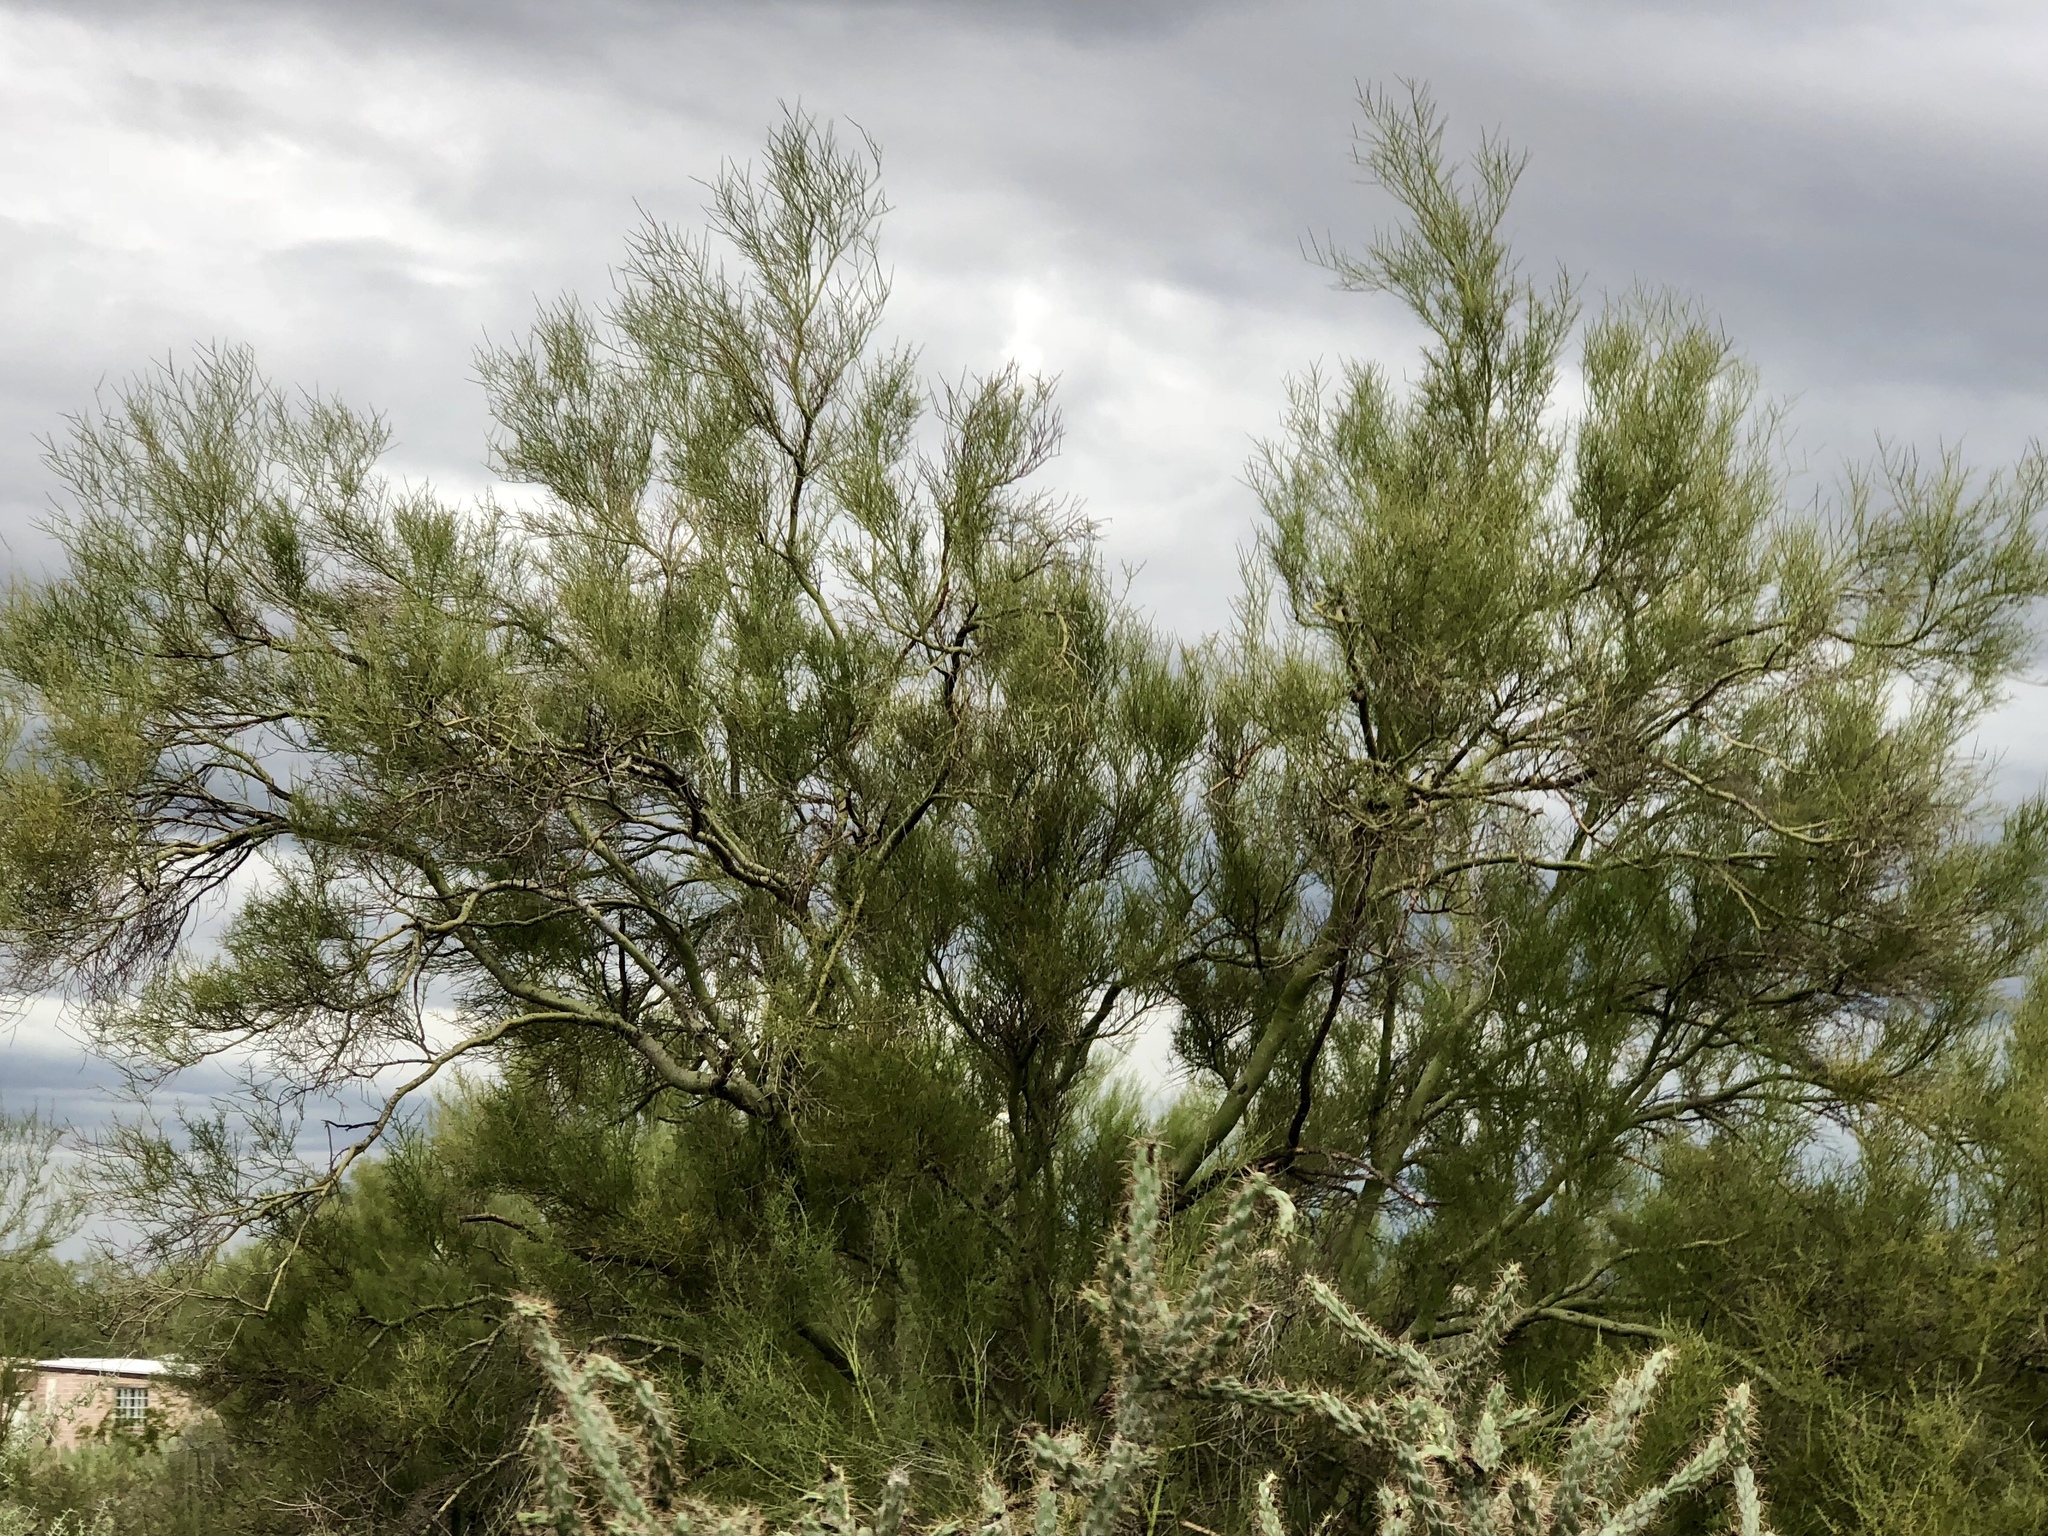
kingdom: Plantae
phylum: Tracheophyta
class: Magnoliopsida
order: Fabales
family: Fabaceae
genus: Parkinsonia
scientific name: Parkinsonia microphylla
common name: Yellow paloverde
